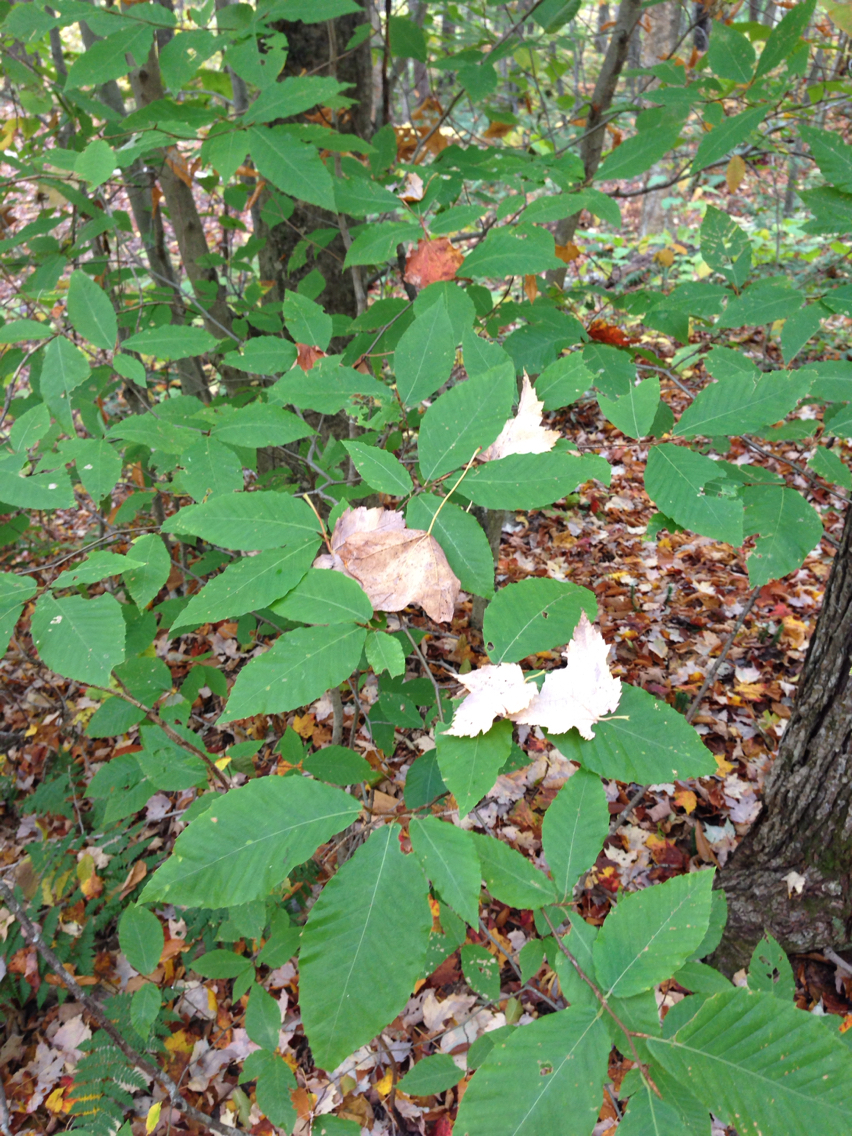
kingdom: Plantae
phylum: Tracheophyta
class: Magnoliopsida
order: Fagales
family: Fagaceae
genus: Fagus
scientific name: Fagus grandifolia
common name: American beech
